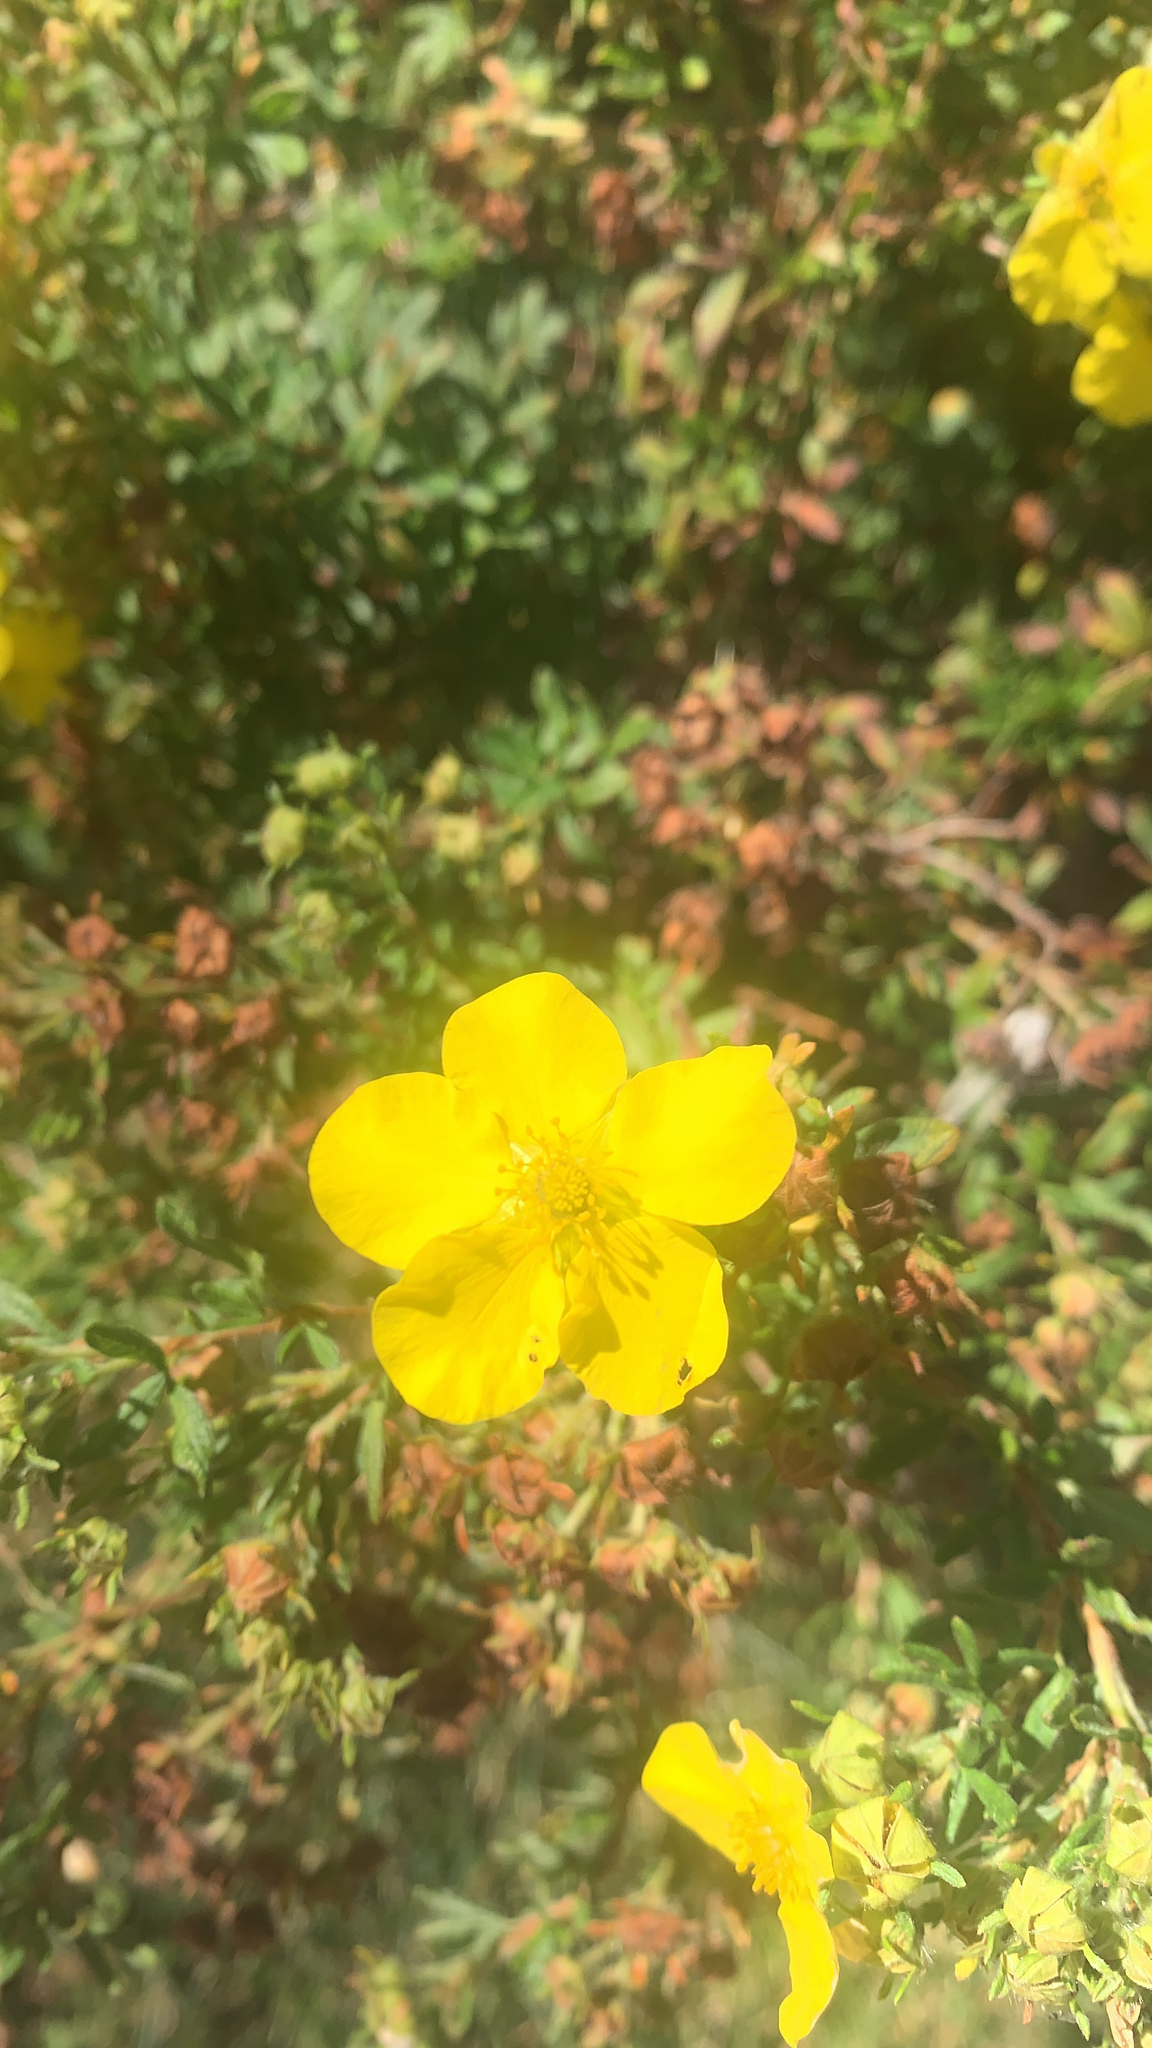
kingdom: Plantae
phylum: Tracheophyta
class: Magnoliopsida
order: Rosales
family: Rosaceae
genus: Dasiphora
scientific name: Dasiphora fruticosa
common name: Shrubby cinquefoil
